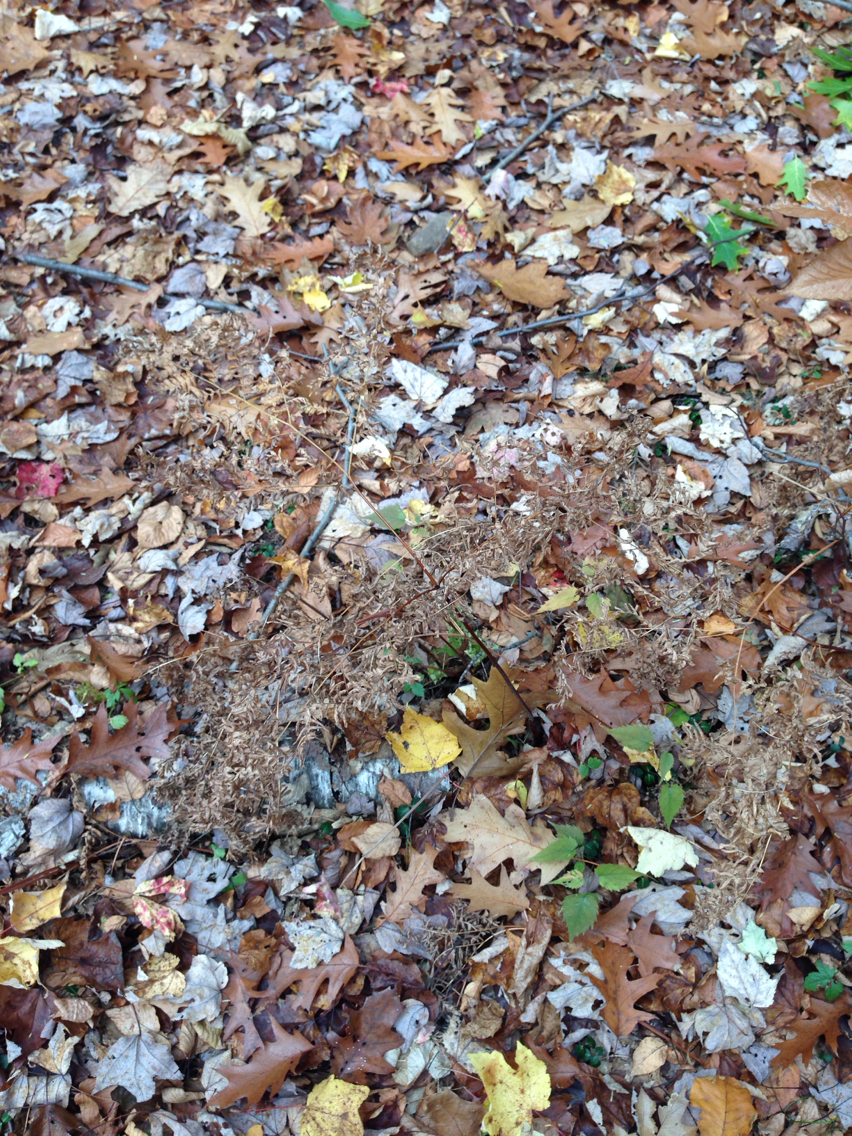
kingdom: Plantae
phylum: Tracheophyta
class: Polypodiopsida
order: Polypodiales
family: Dennstaedtiaceae
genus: Pteridium
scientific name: Pteridium aquilinum
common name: Bracken
